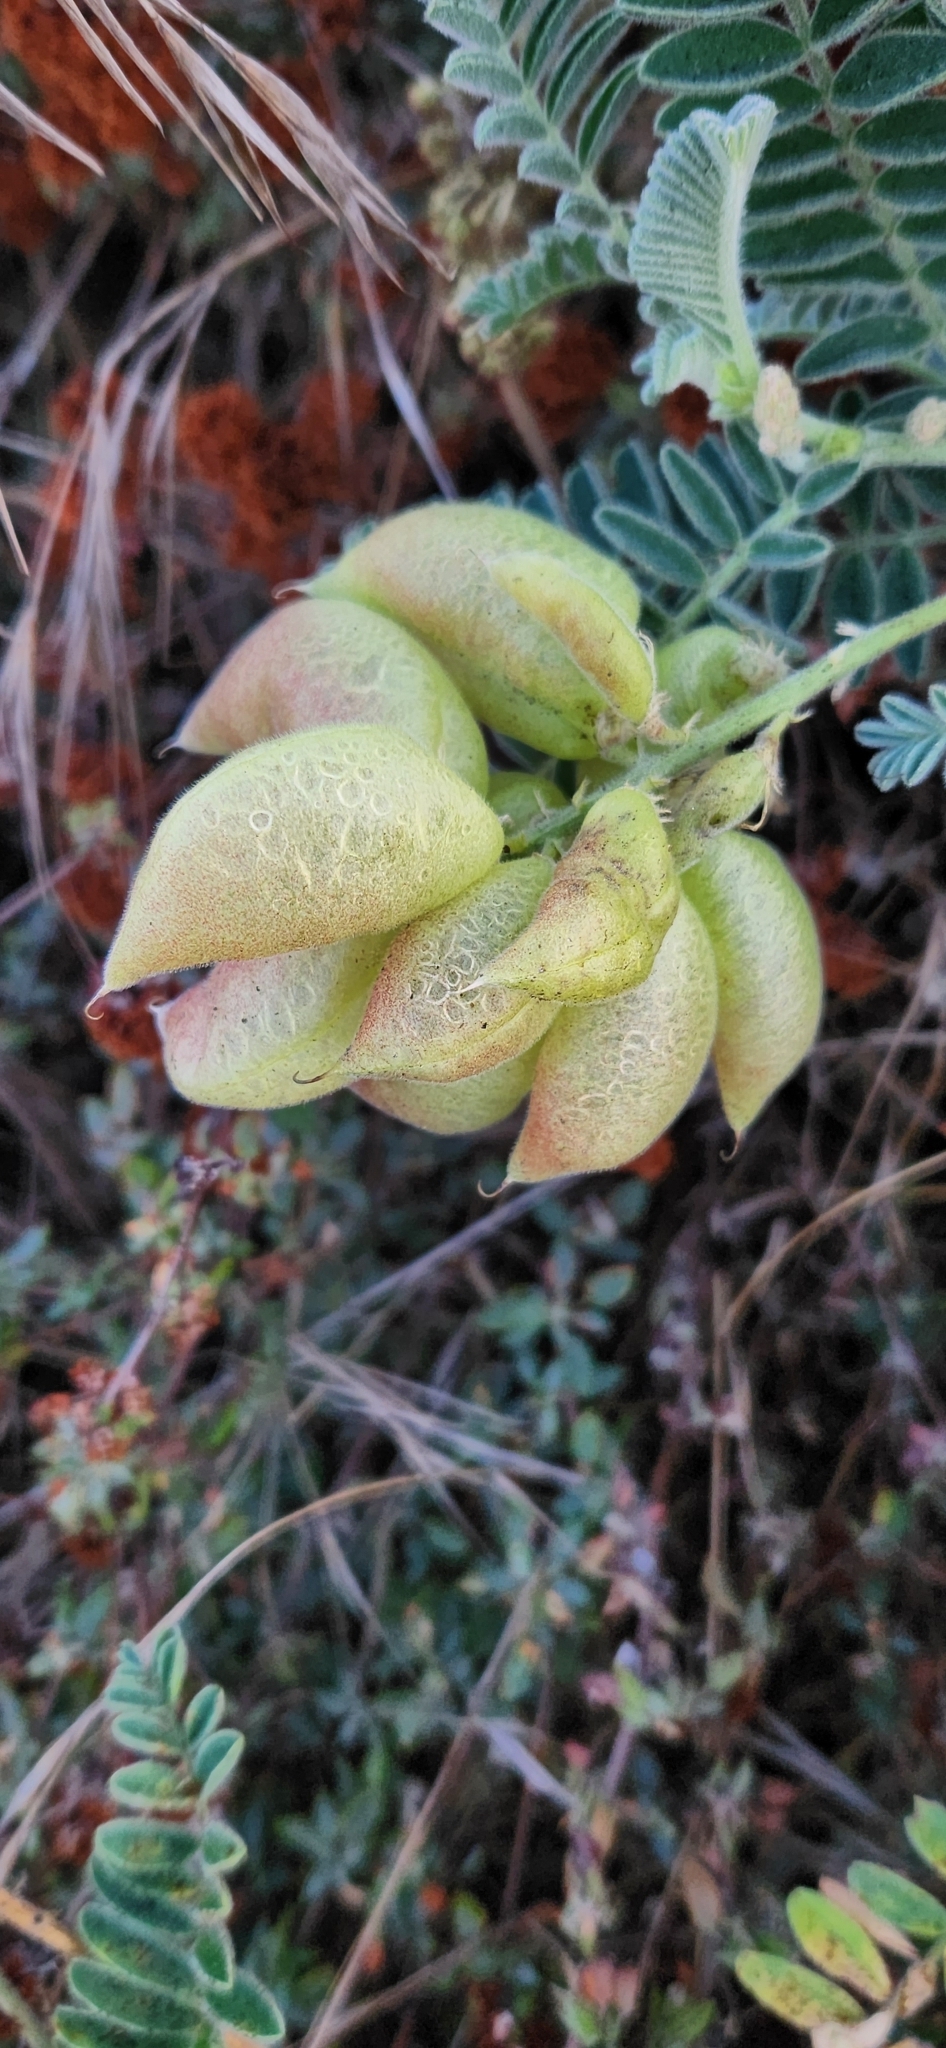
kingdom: Plantae
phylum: Tracheophyta
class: Magnoliopsida
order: Fabales
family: Fabaceae
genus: Astragalus
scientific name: Astragalus nuttallii
